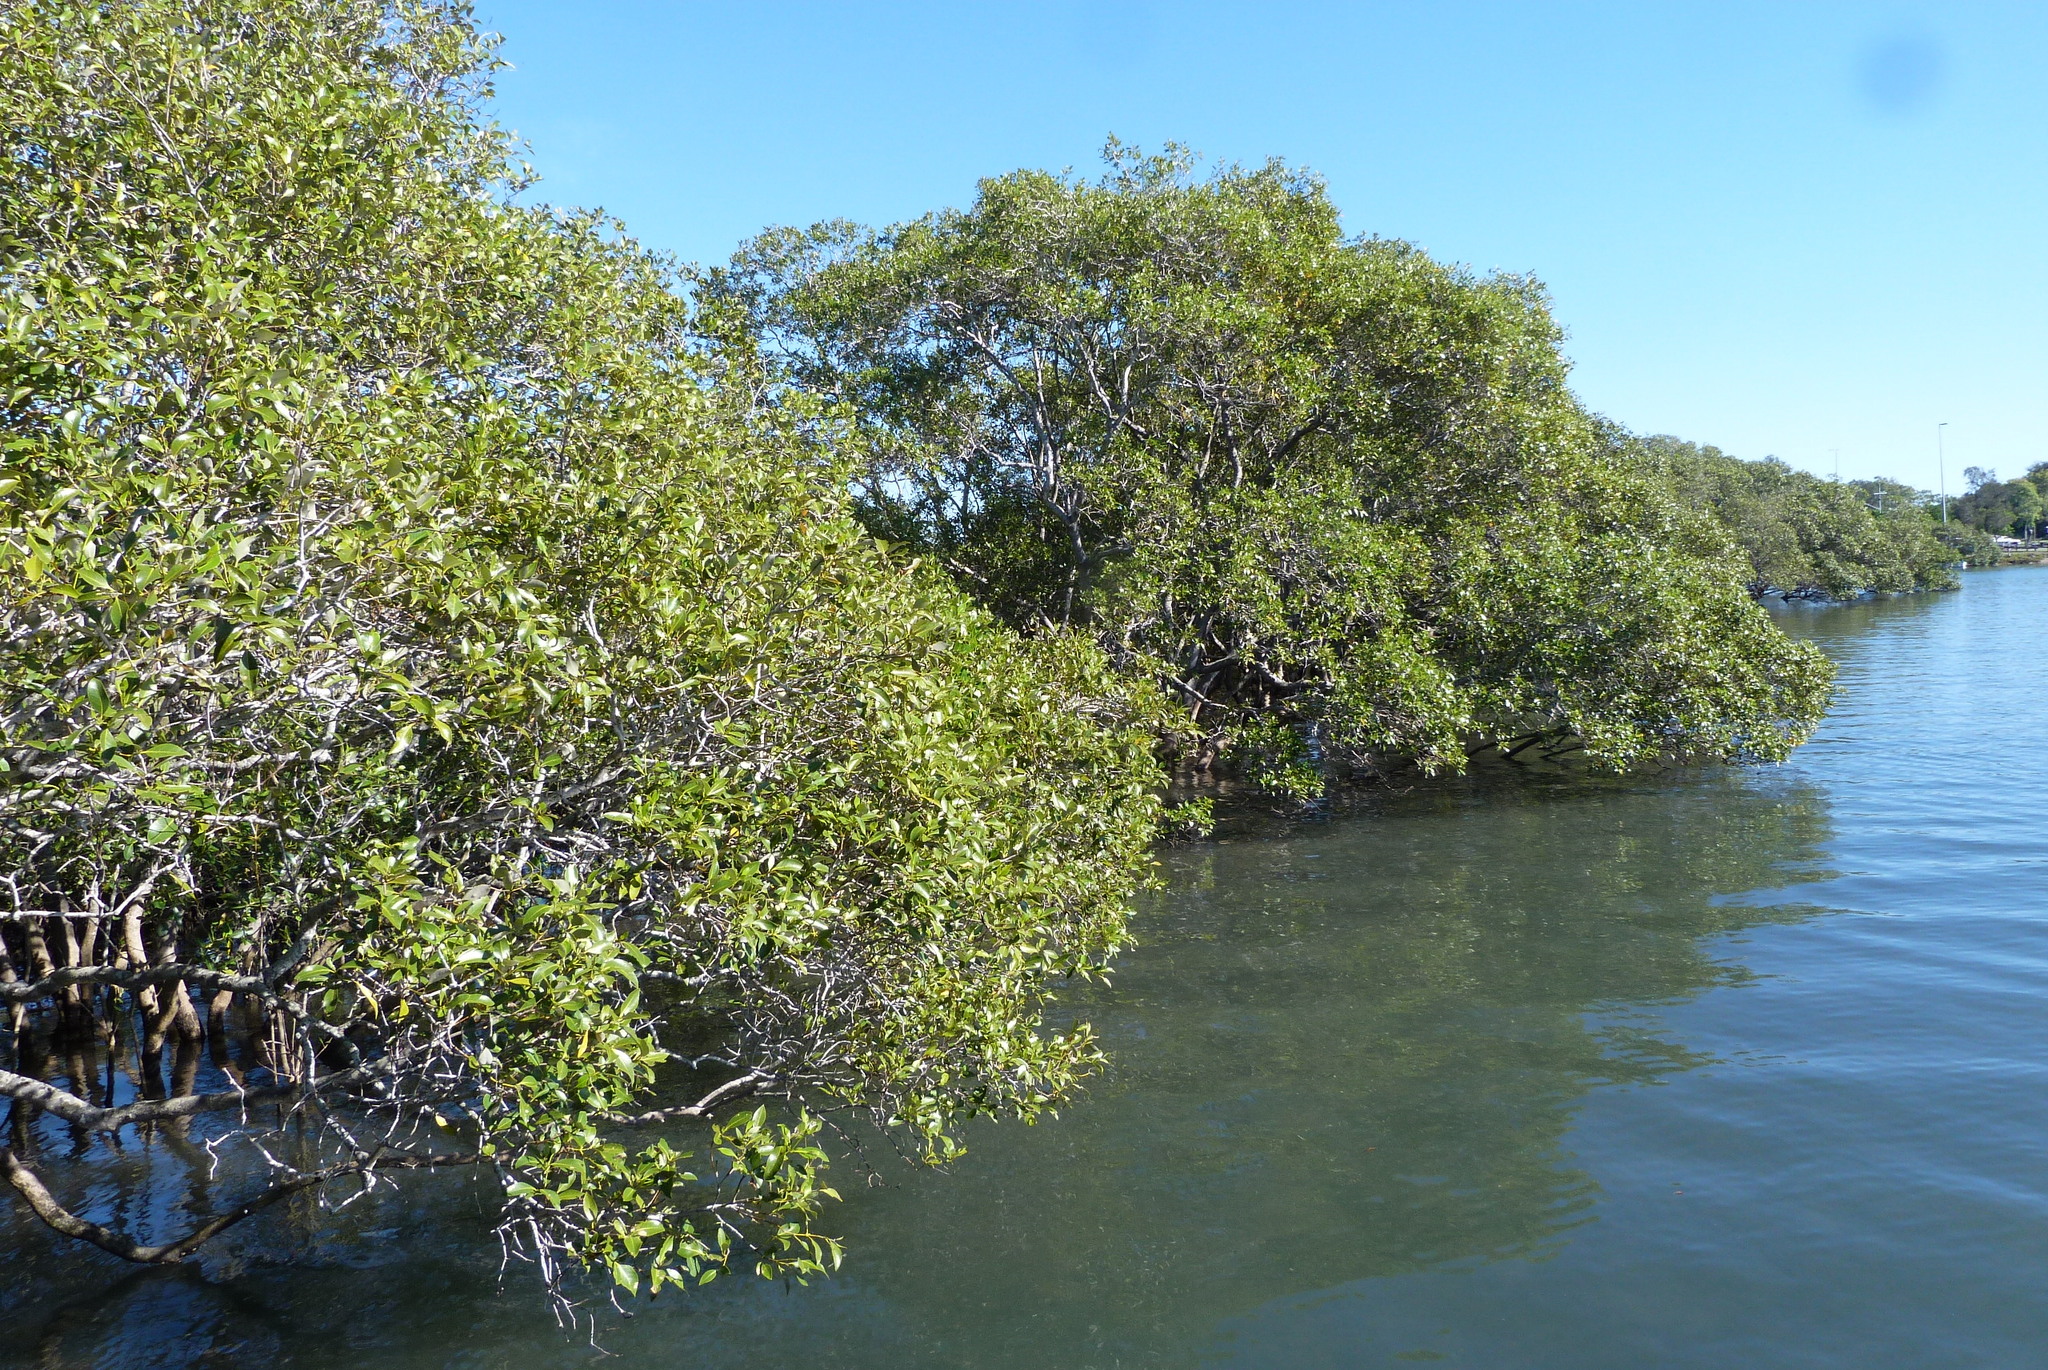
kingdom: Plantae
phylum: Tracheophyta
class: Magnoliopsida
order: Lamiales
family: Acanthaceae
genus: Avicennia
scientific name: Avicennia marina
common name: Gray mangrove
